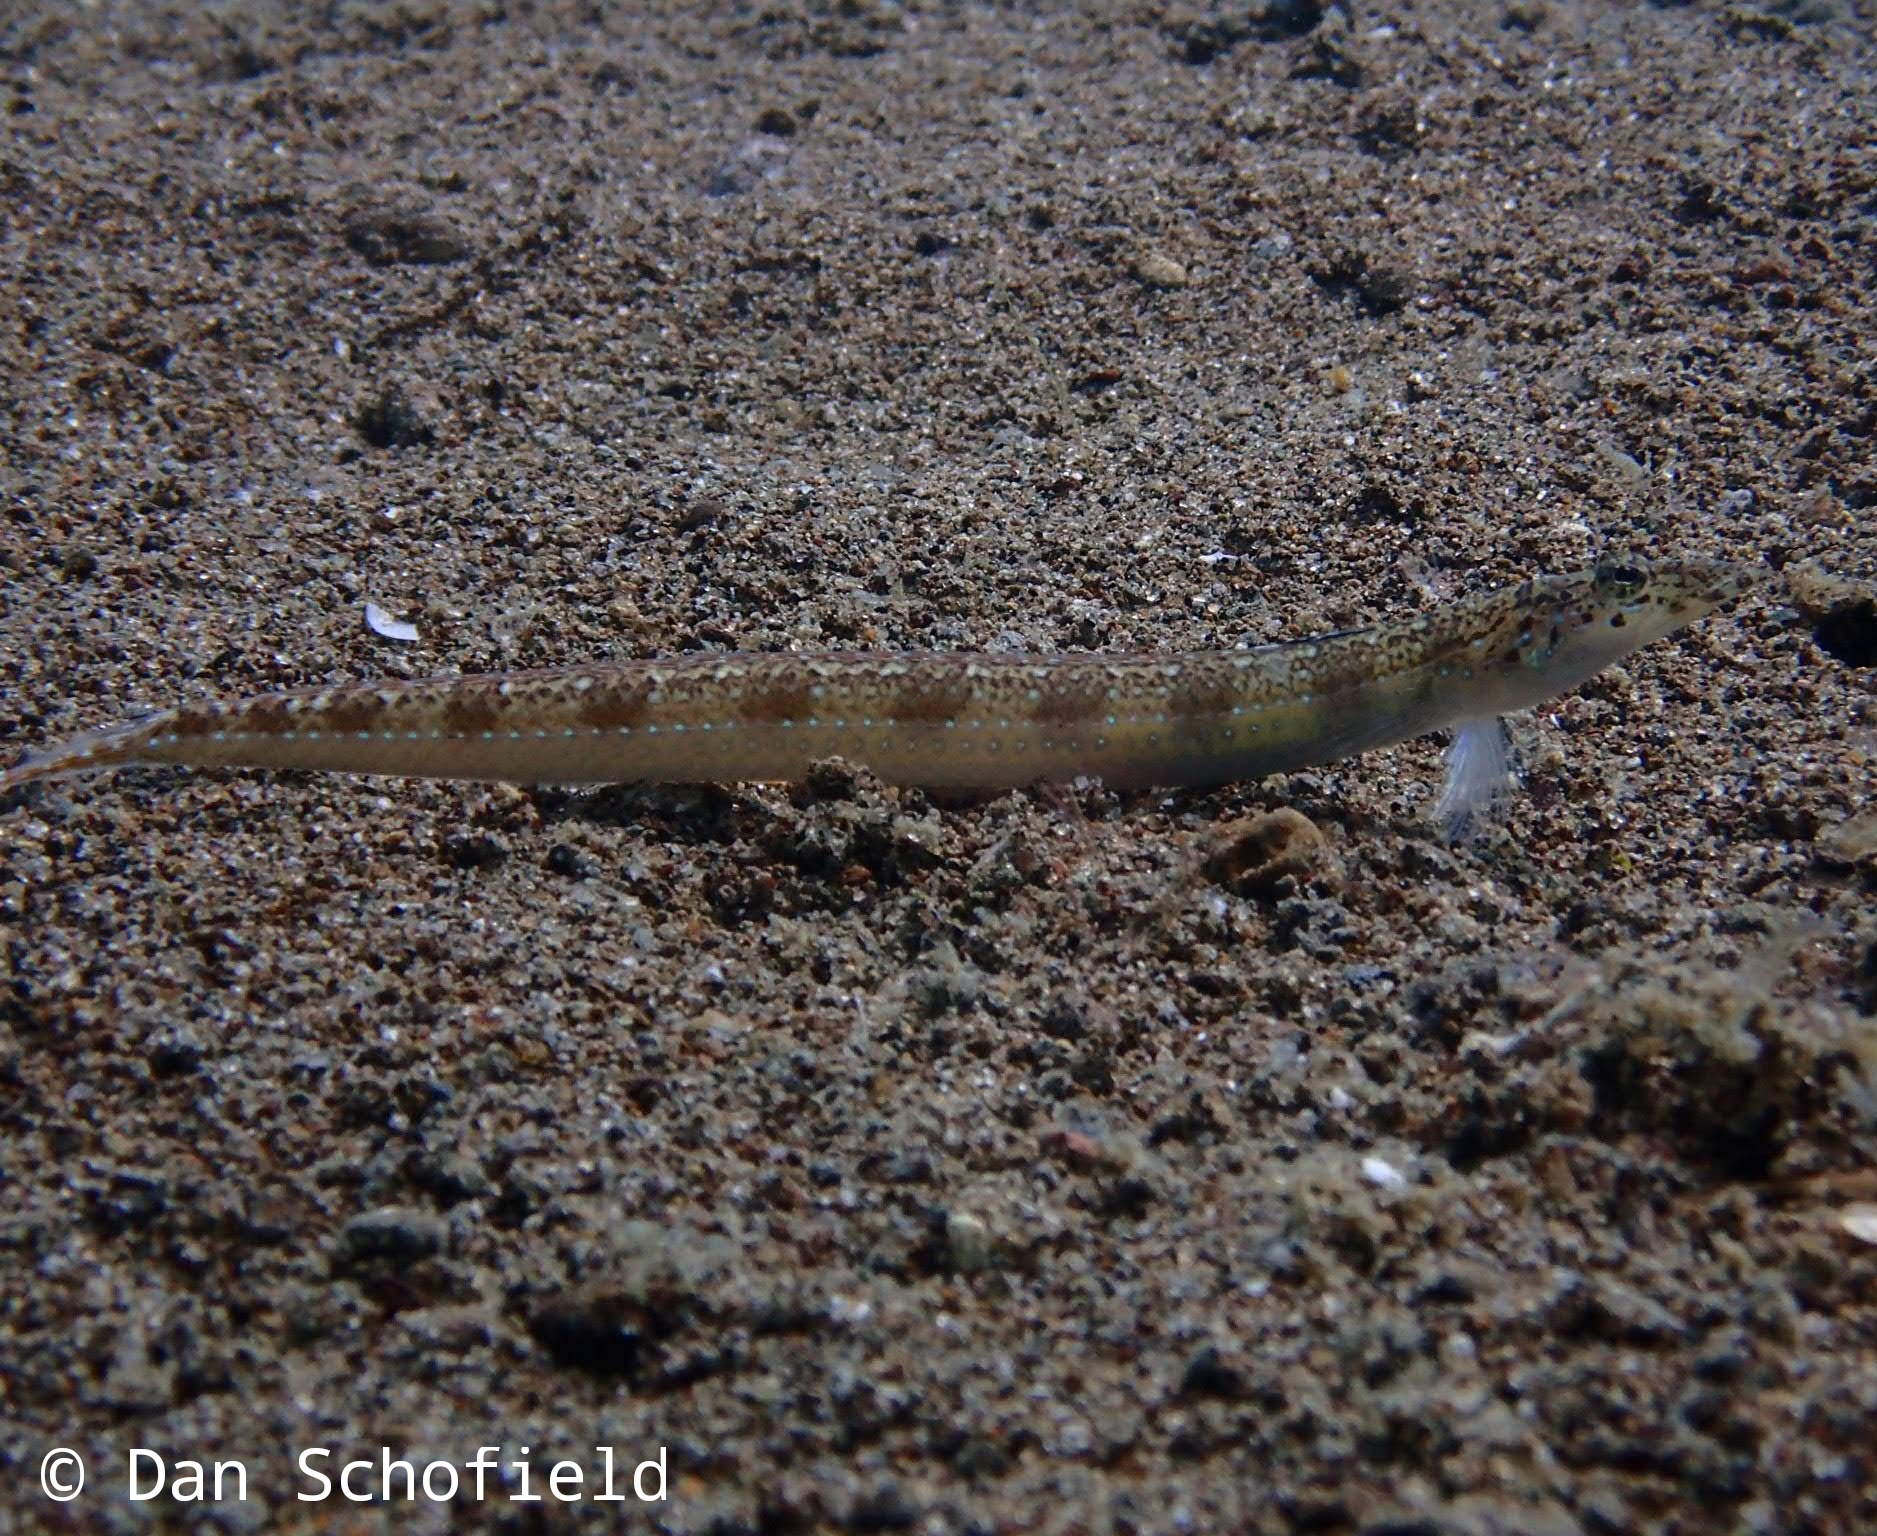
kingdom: Animalia
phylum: Chordata
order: Perciformes
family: Trichonotidae
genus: Trichonotus
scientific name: Trichonotus setiger
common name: Spotted sand-diver
